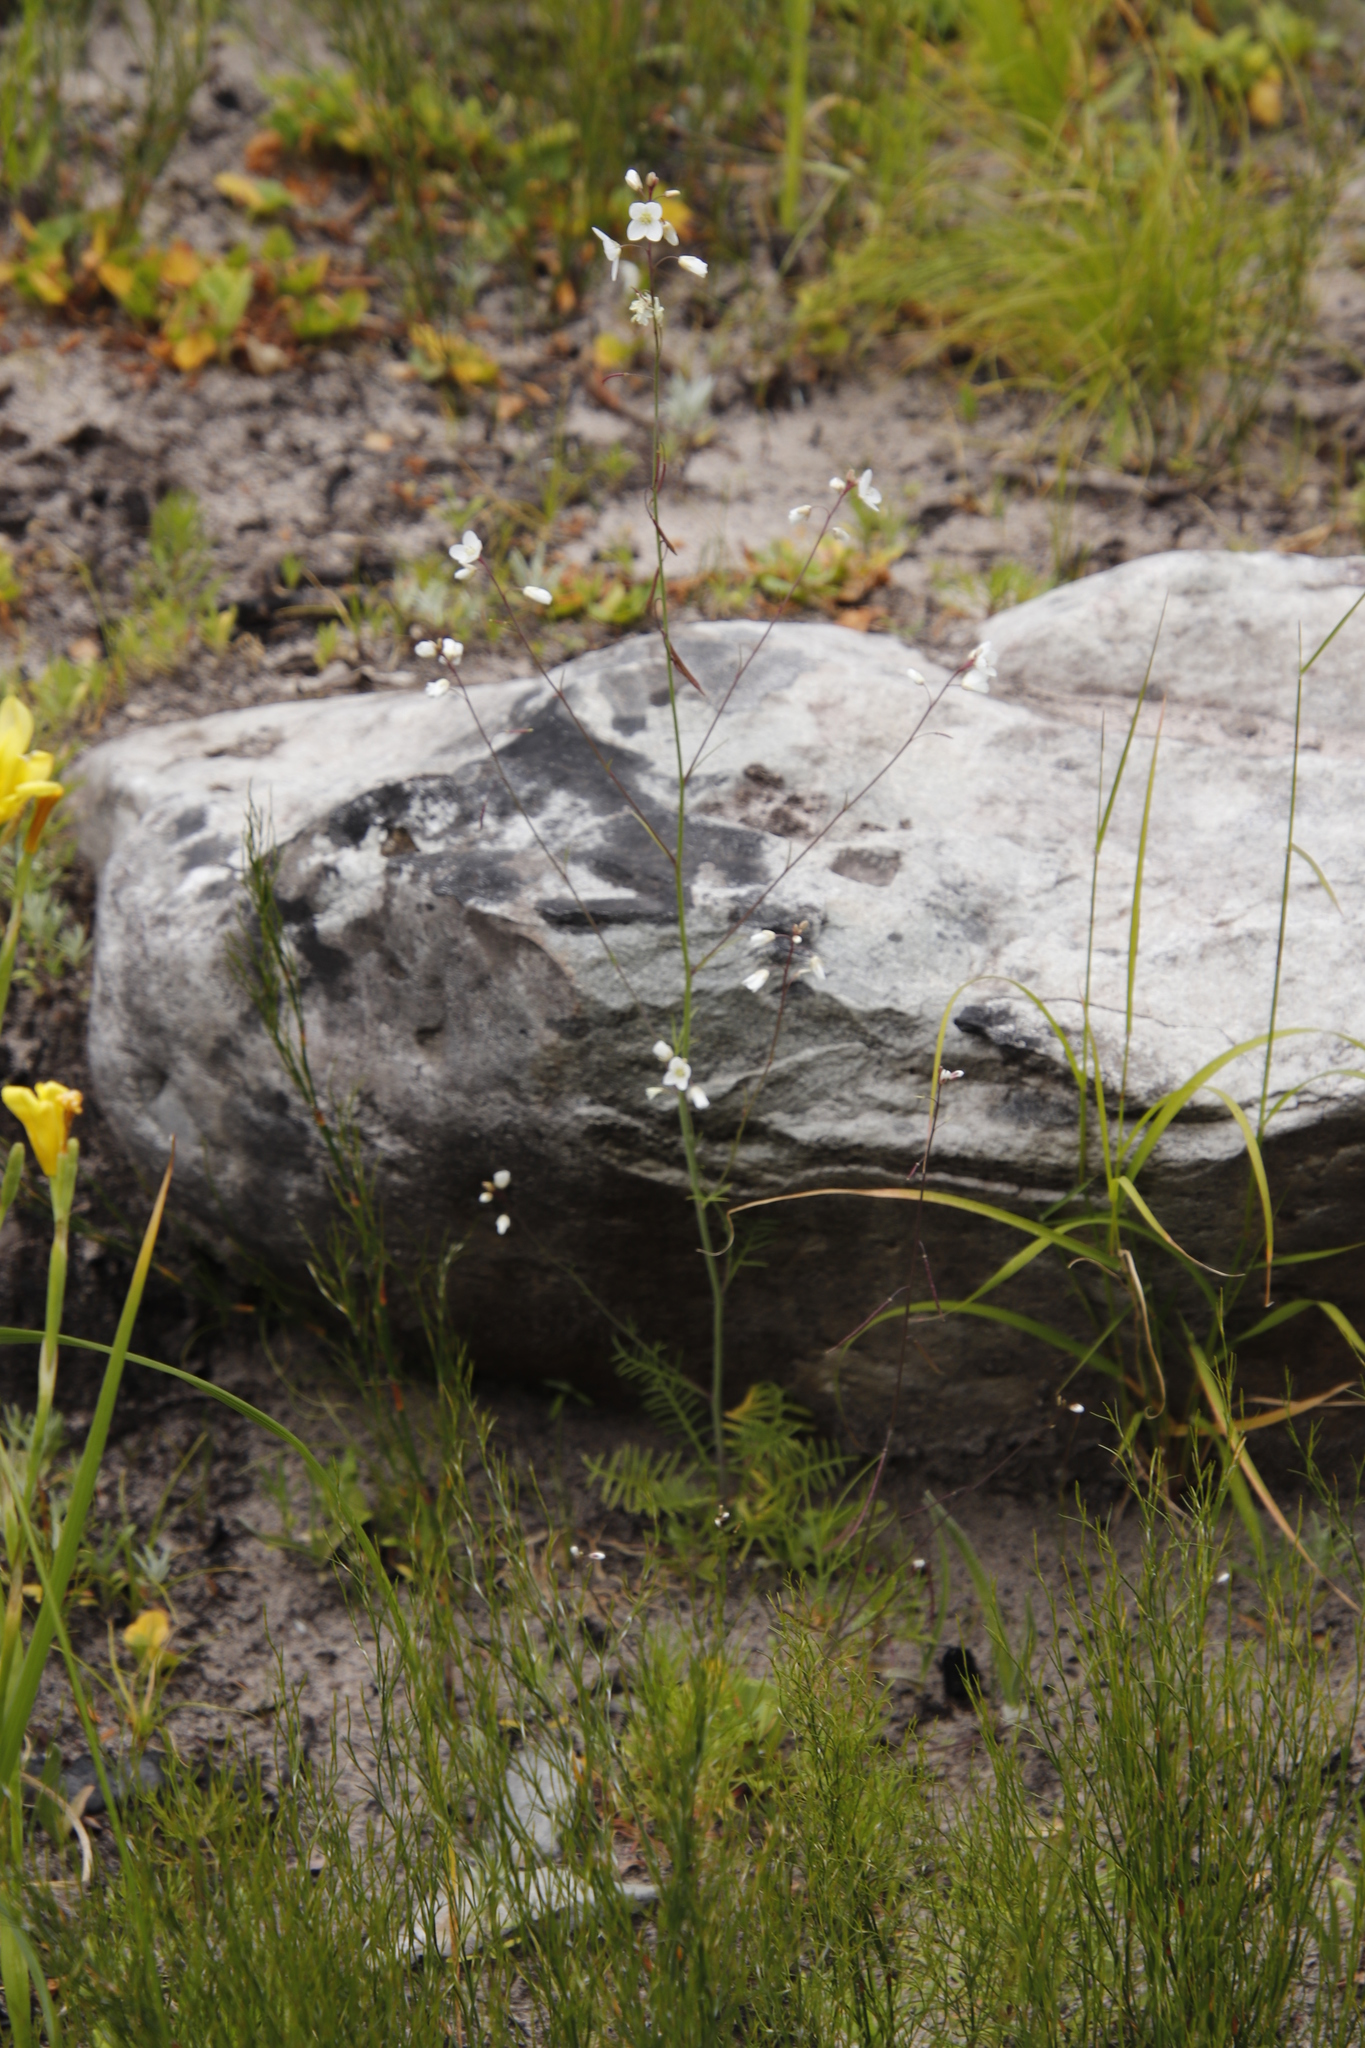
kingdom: Plantae
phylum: Tracheophyta
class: Magnoliopsida
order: Brassicales
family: Brassicaceae
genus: Heliophila
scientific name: Heliophila meyeri
